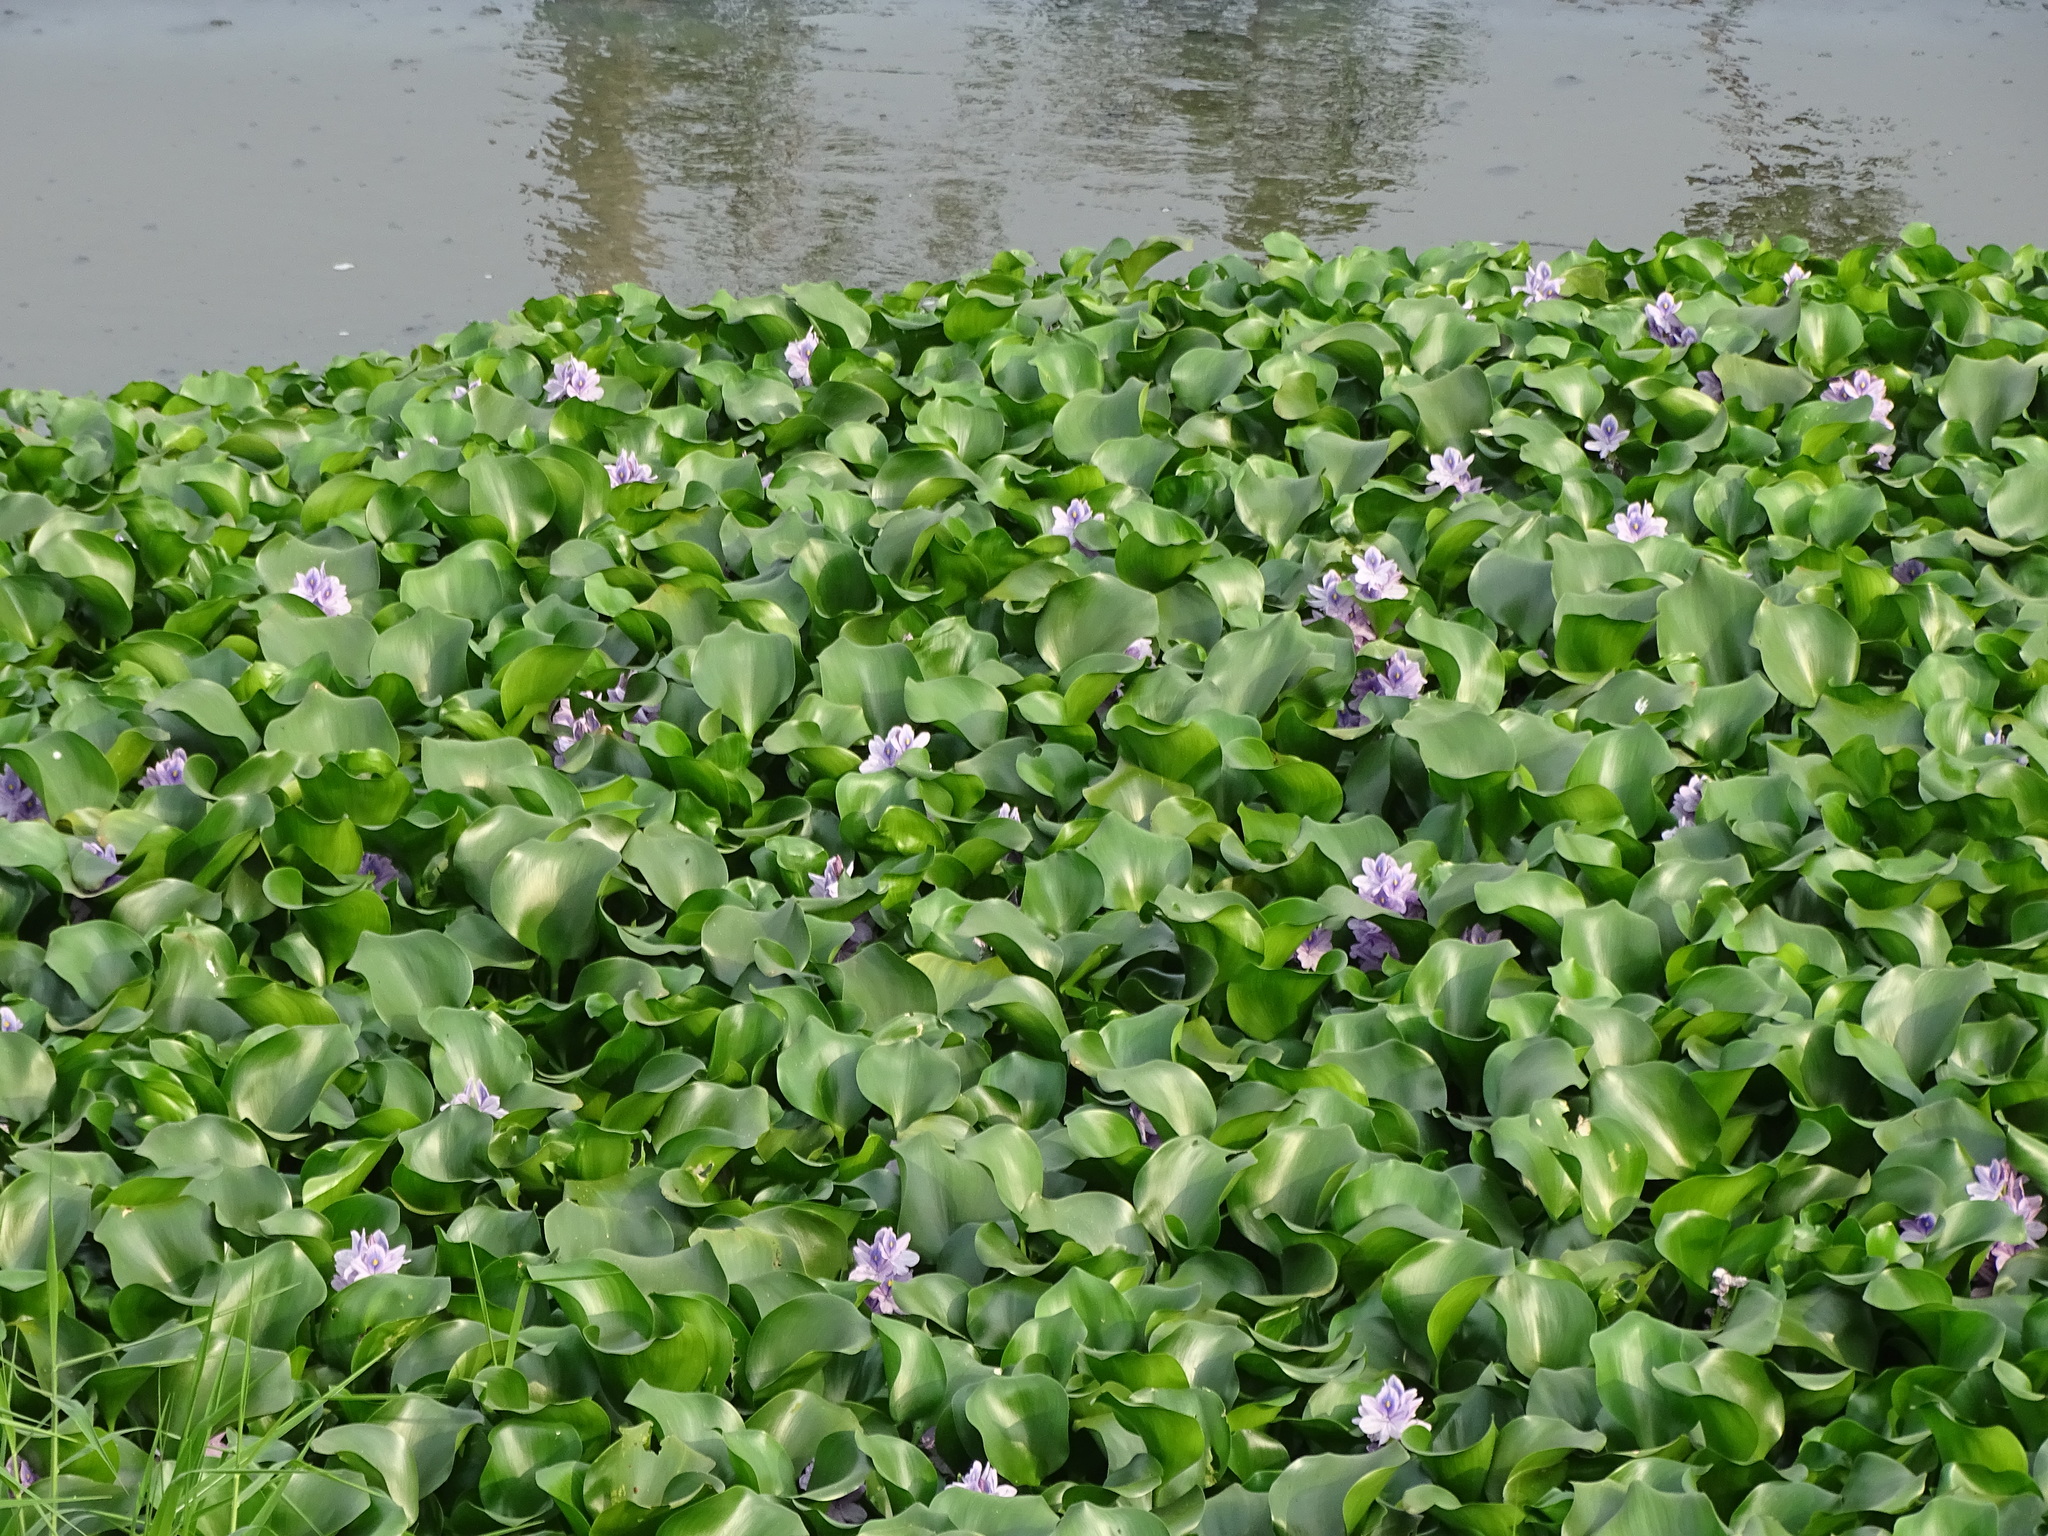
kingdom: Plantae
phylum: Tracheophyta
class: Liliopsida
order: Commelinales
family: Pontederiaceae
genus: Pontederia
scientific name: Pontederia crassipes
